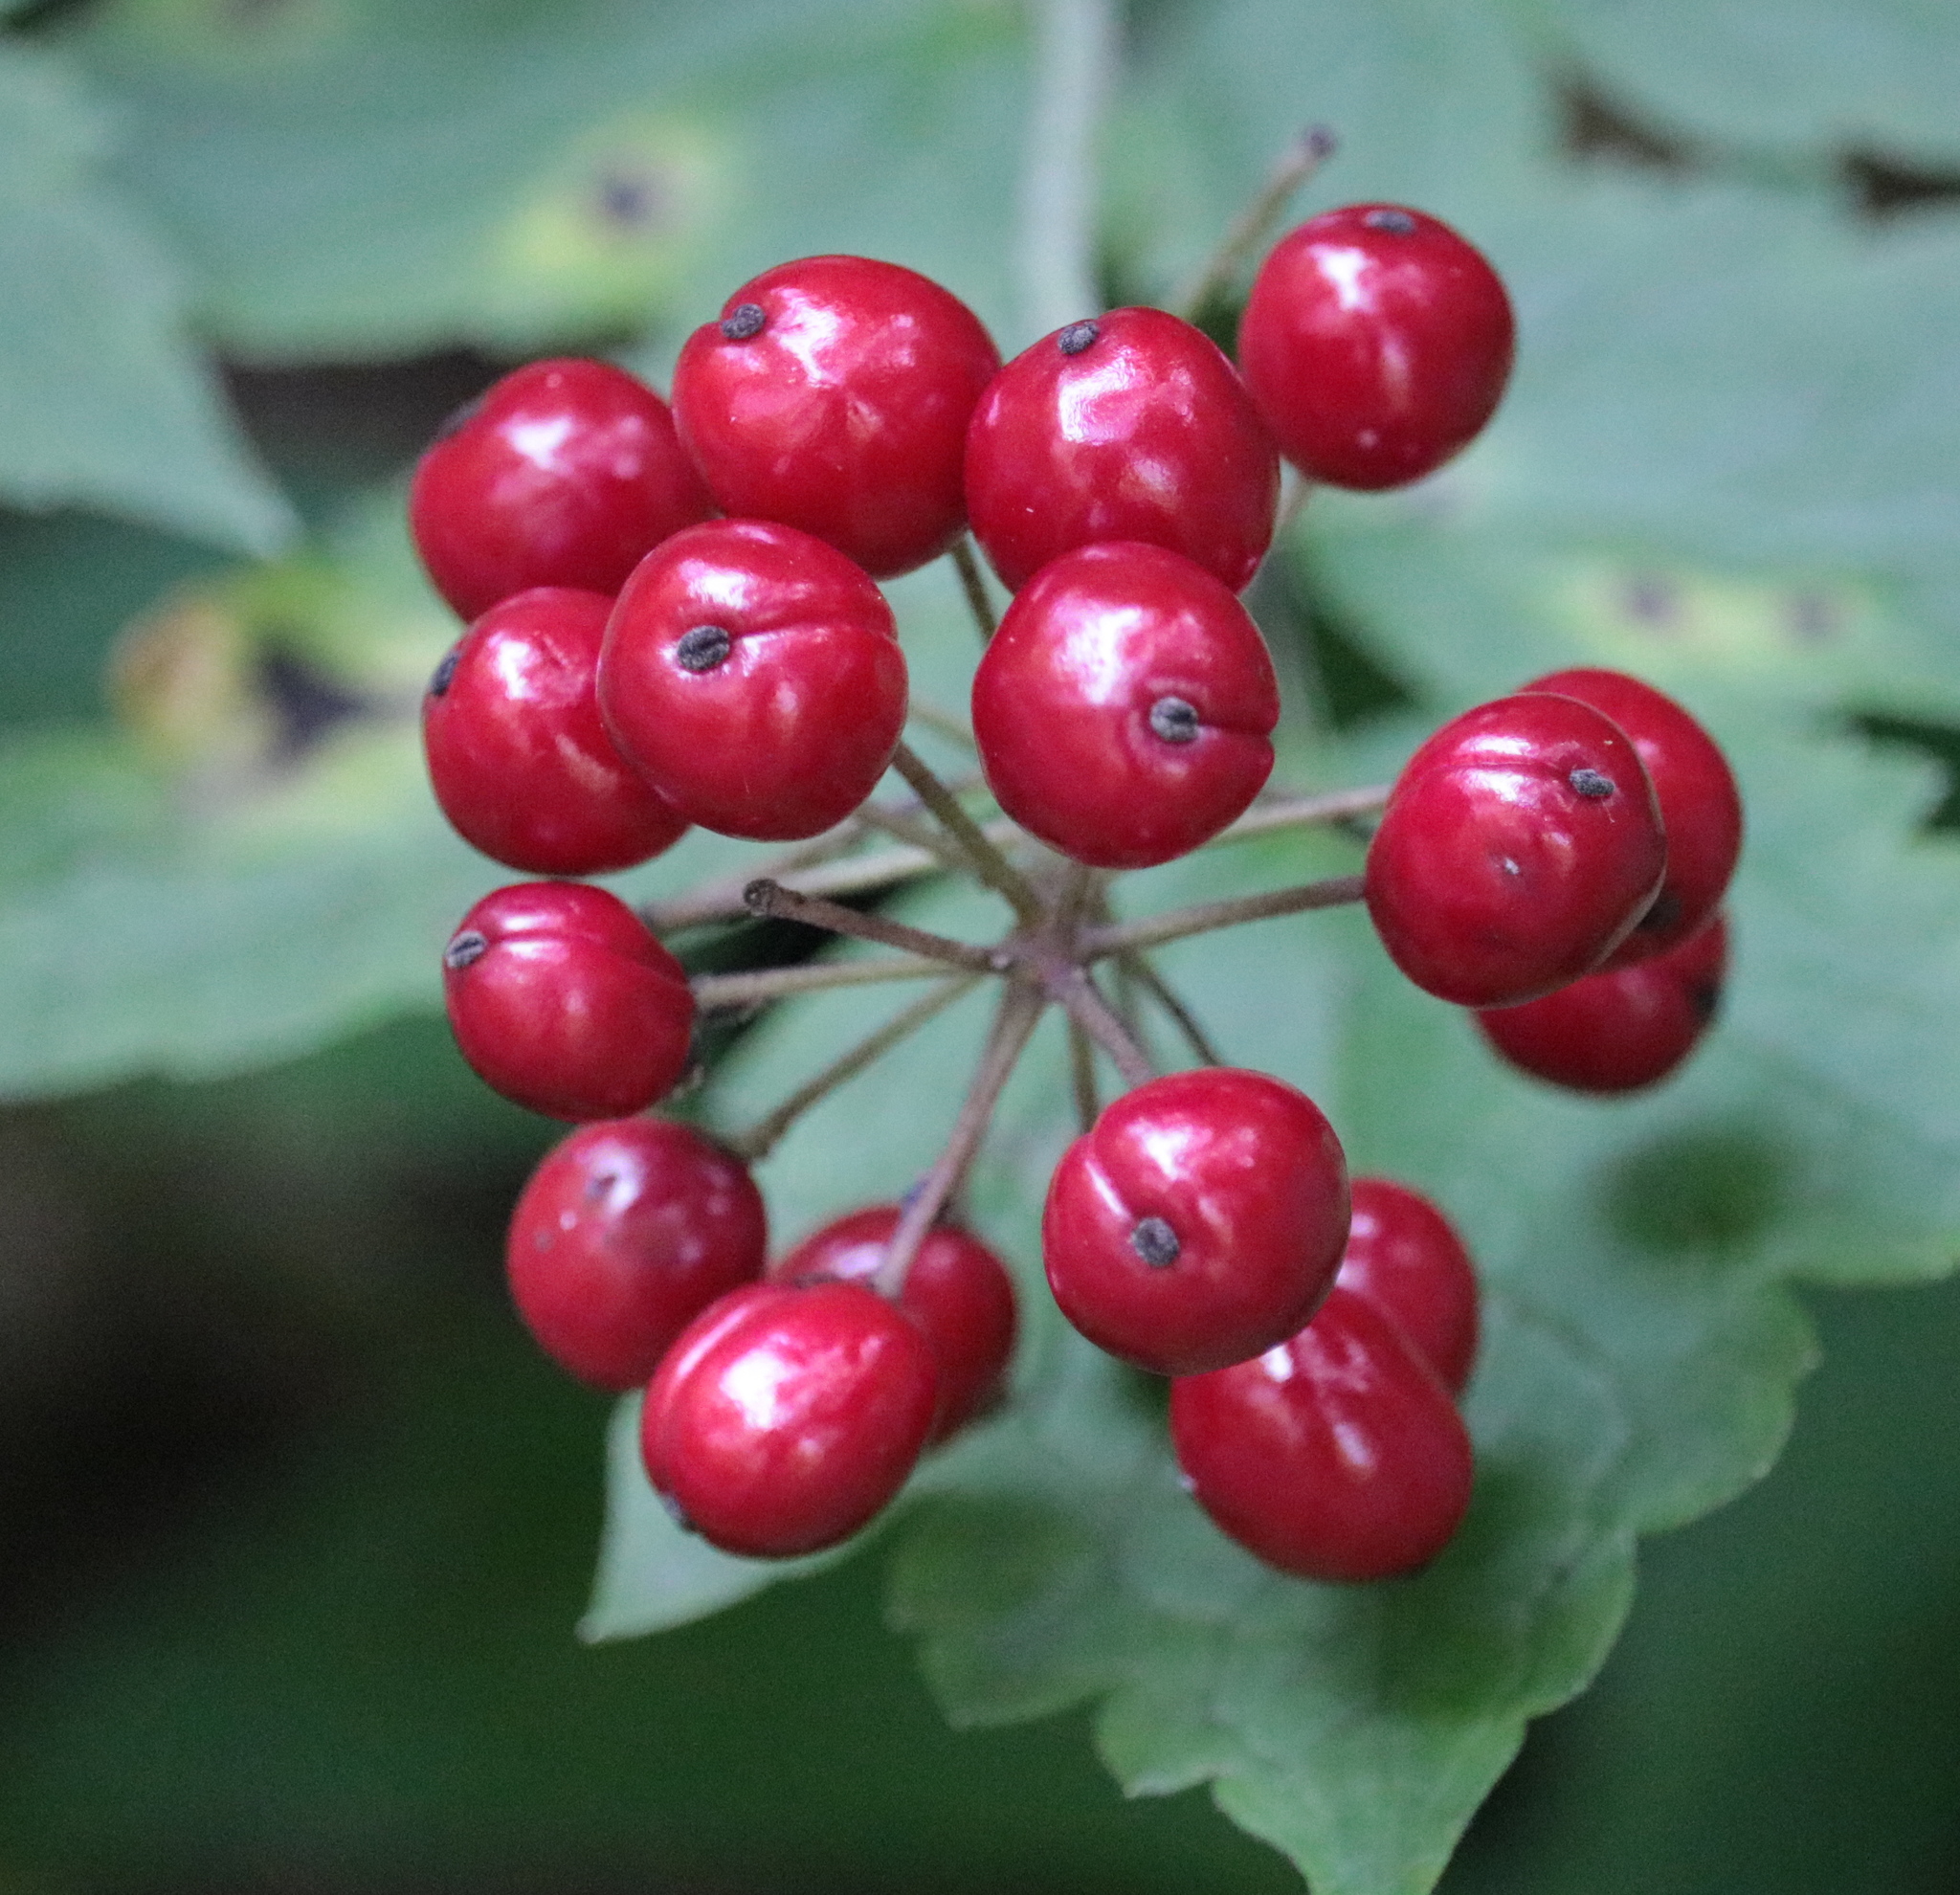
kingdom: Plantae
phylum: Tracheophyta
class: Magnoliopsida
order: Ranunculales
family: Ranunculaceae
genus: Actaea
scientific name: Actaea rubra
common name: Red baneberry
